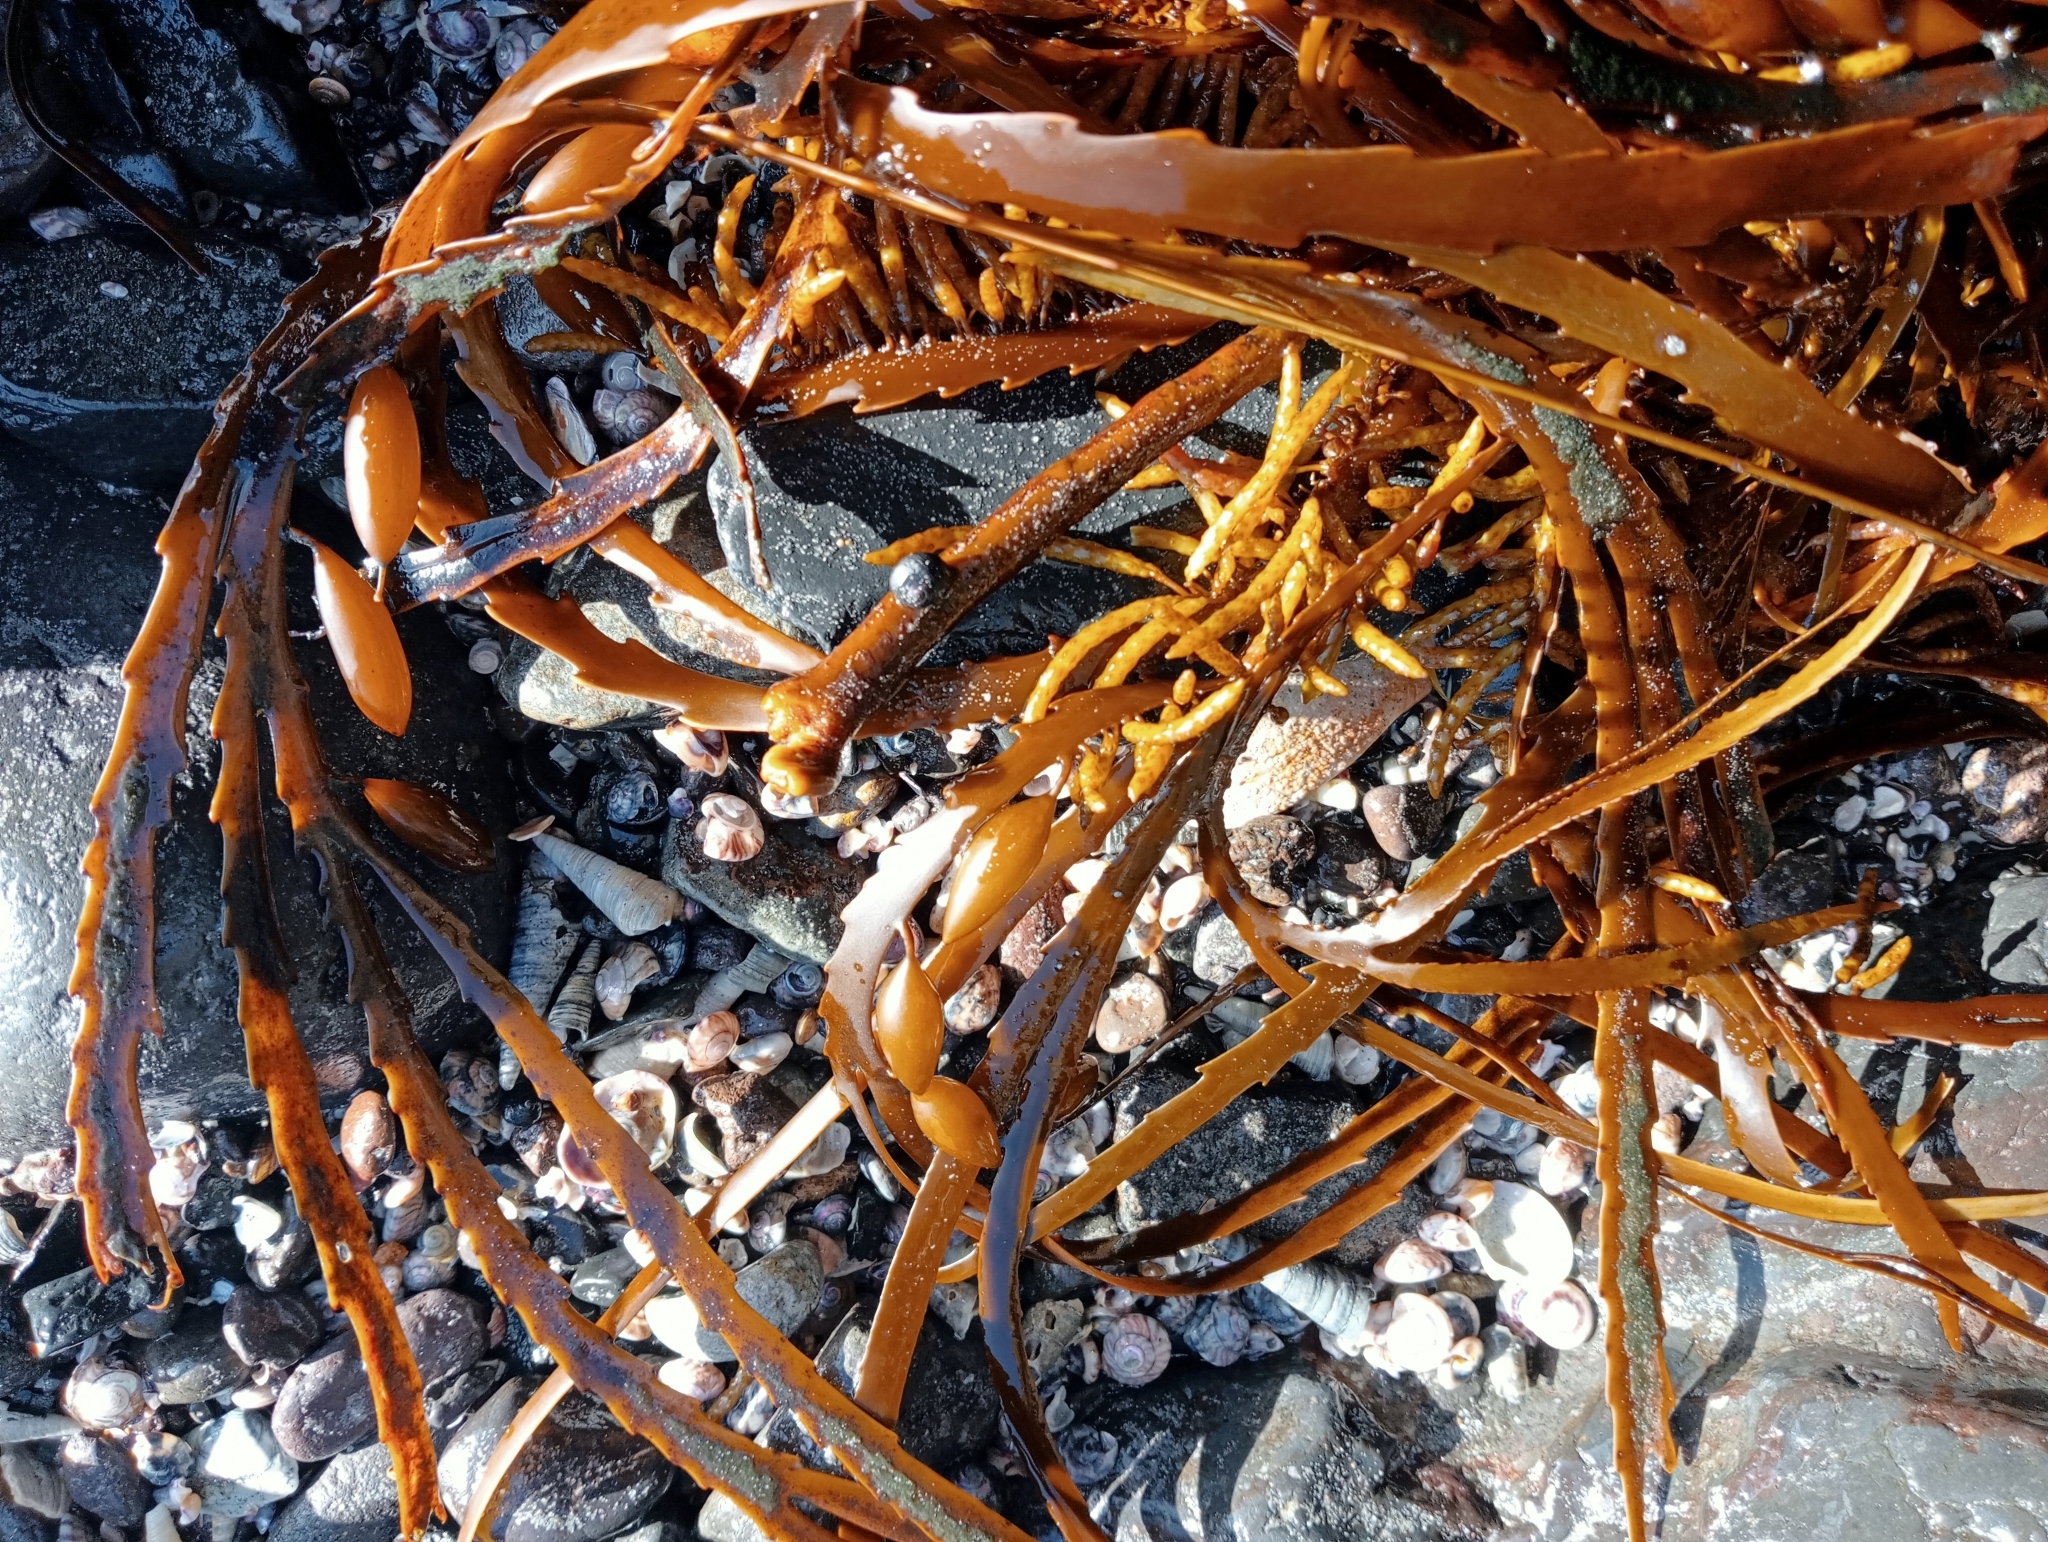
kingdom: Chromista
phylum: Ochrophyta
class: Phaeophyceae
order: Fucales
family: Seirococcaceae
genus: Marginariella
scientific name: Marginariella boryana
